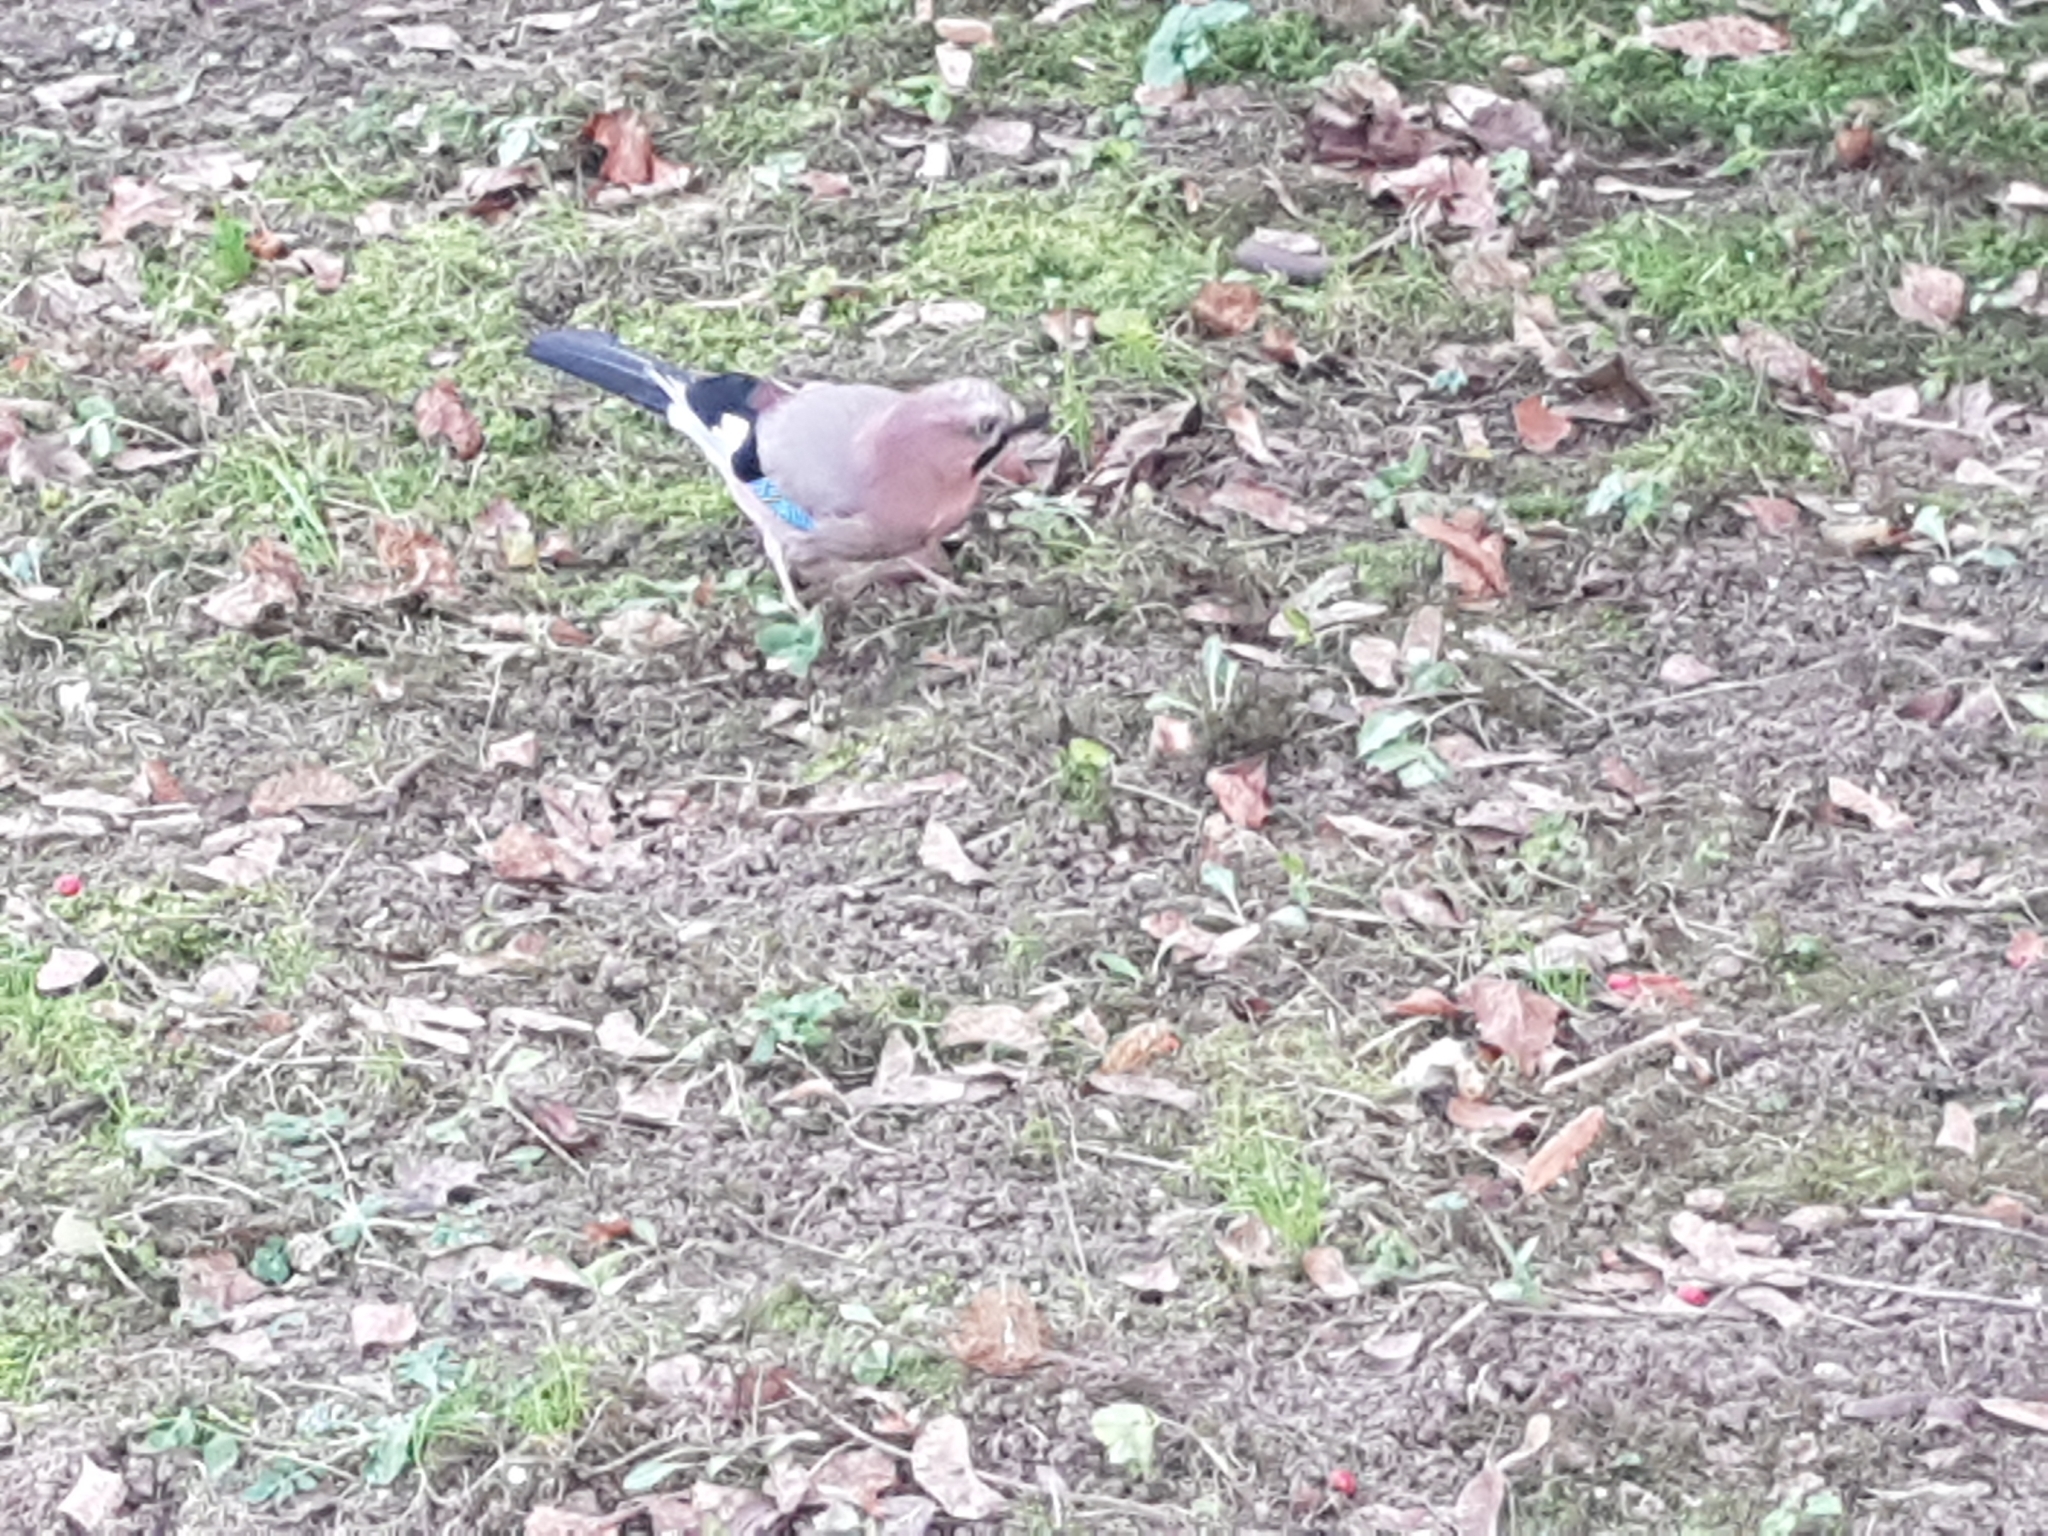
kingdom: Animalia
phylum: Chordata
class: Aves
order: Passeriformes
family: Corvidae
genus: Garrulus
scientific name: Garrulus glandarius
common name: Eurasian jay
